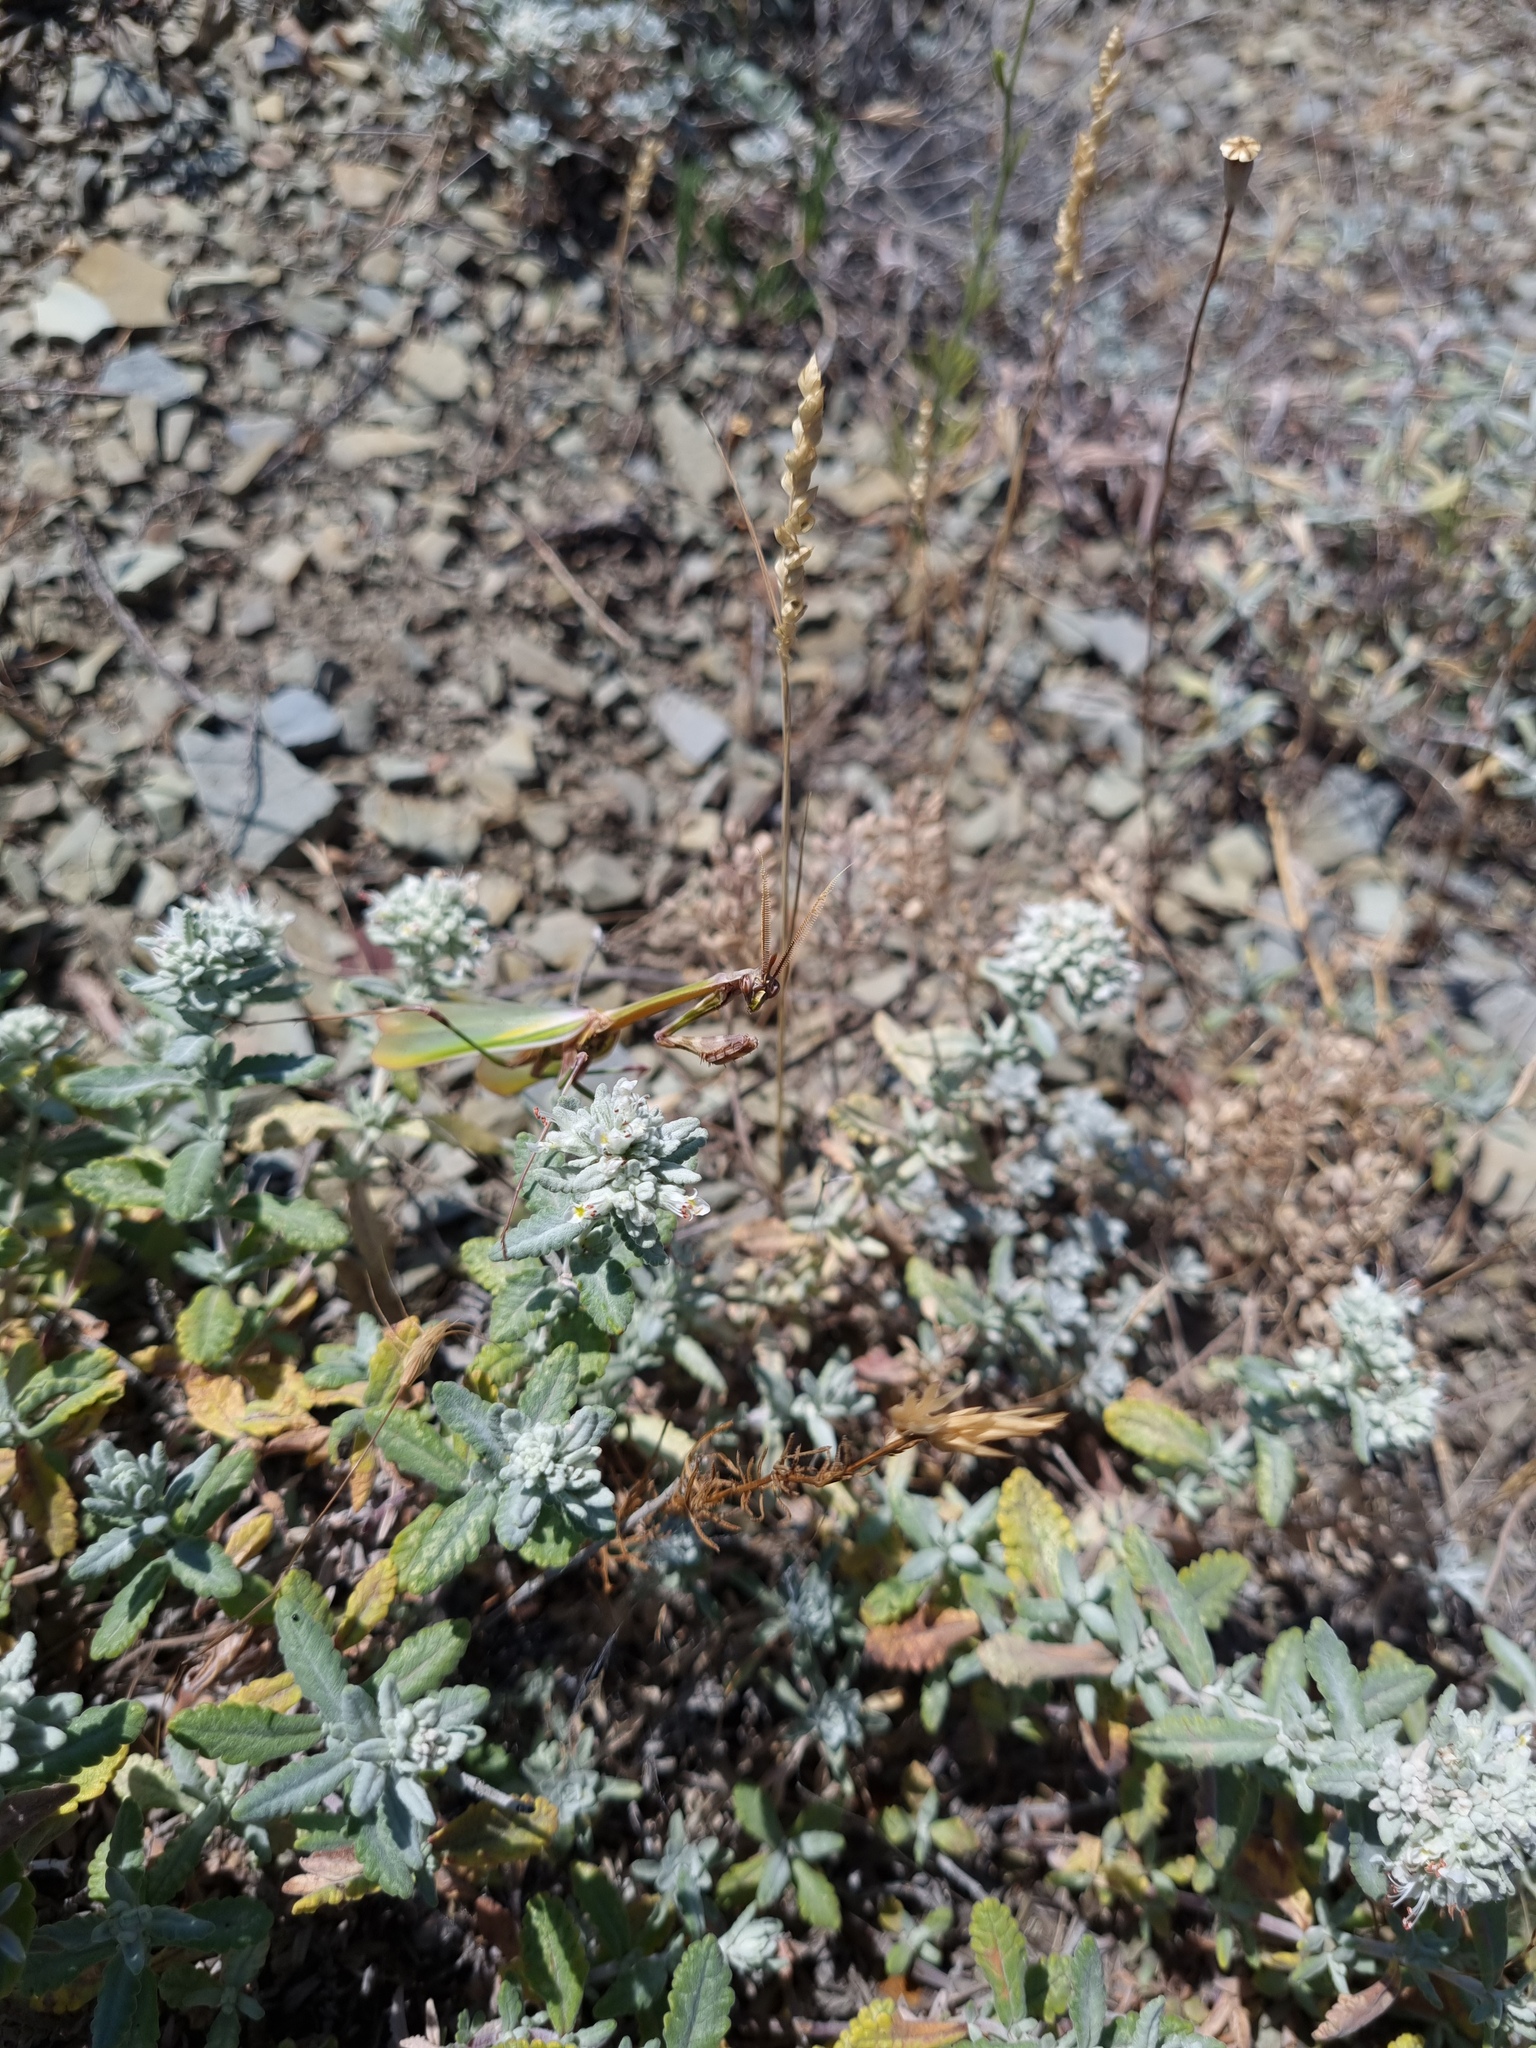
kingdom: Plantae
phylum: Tracheophyta
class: Magnoliopsida
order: Lamiales
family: Lamiaceae
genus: Teucrium
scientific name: Teucrium polium
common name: Poley
